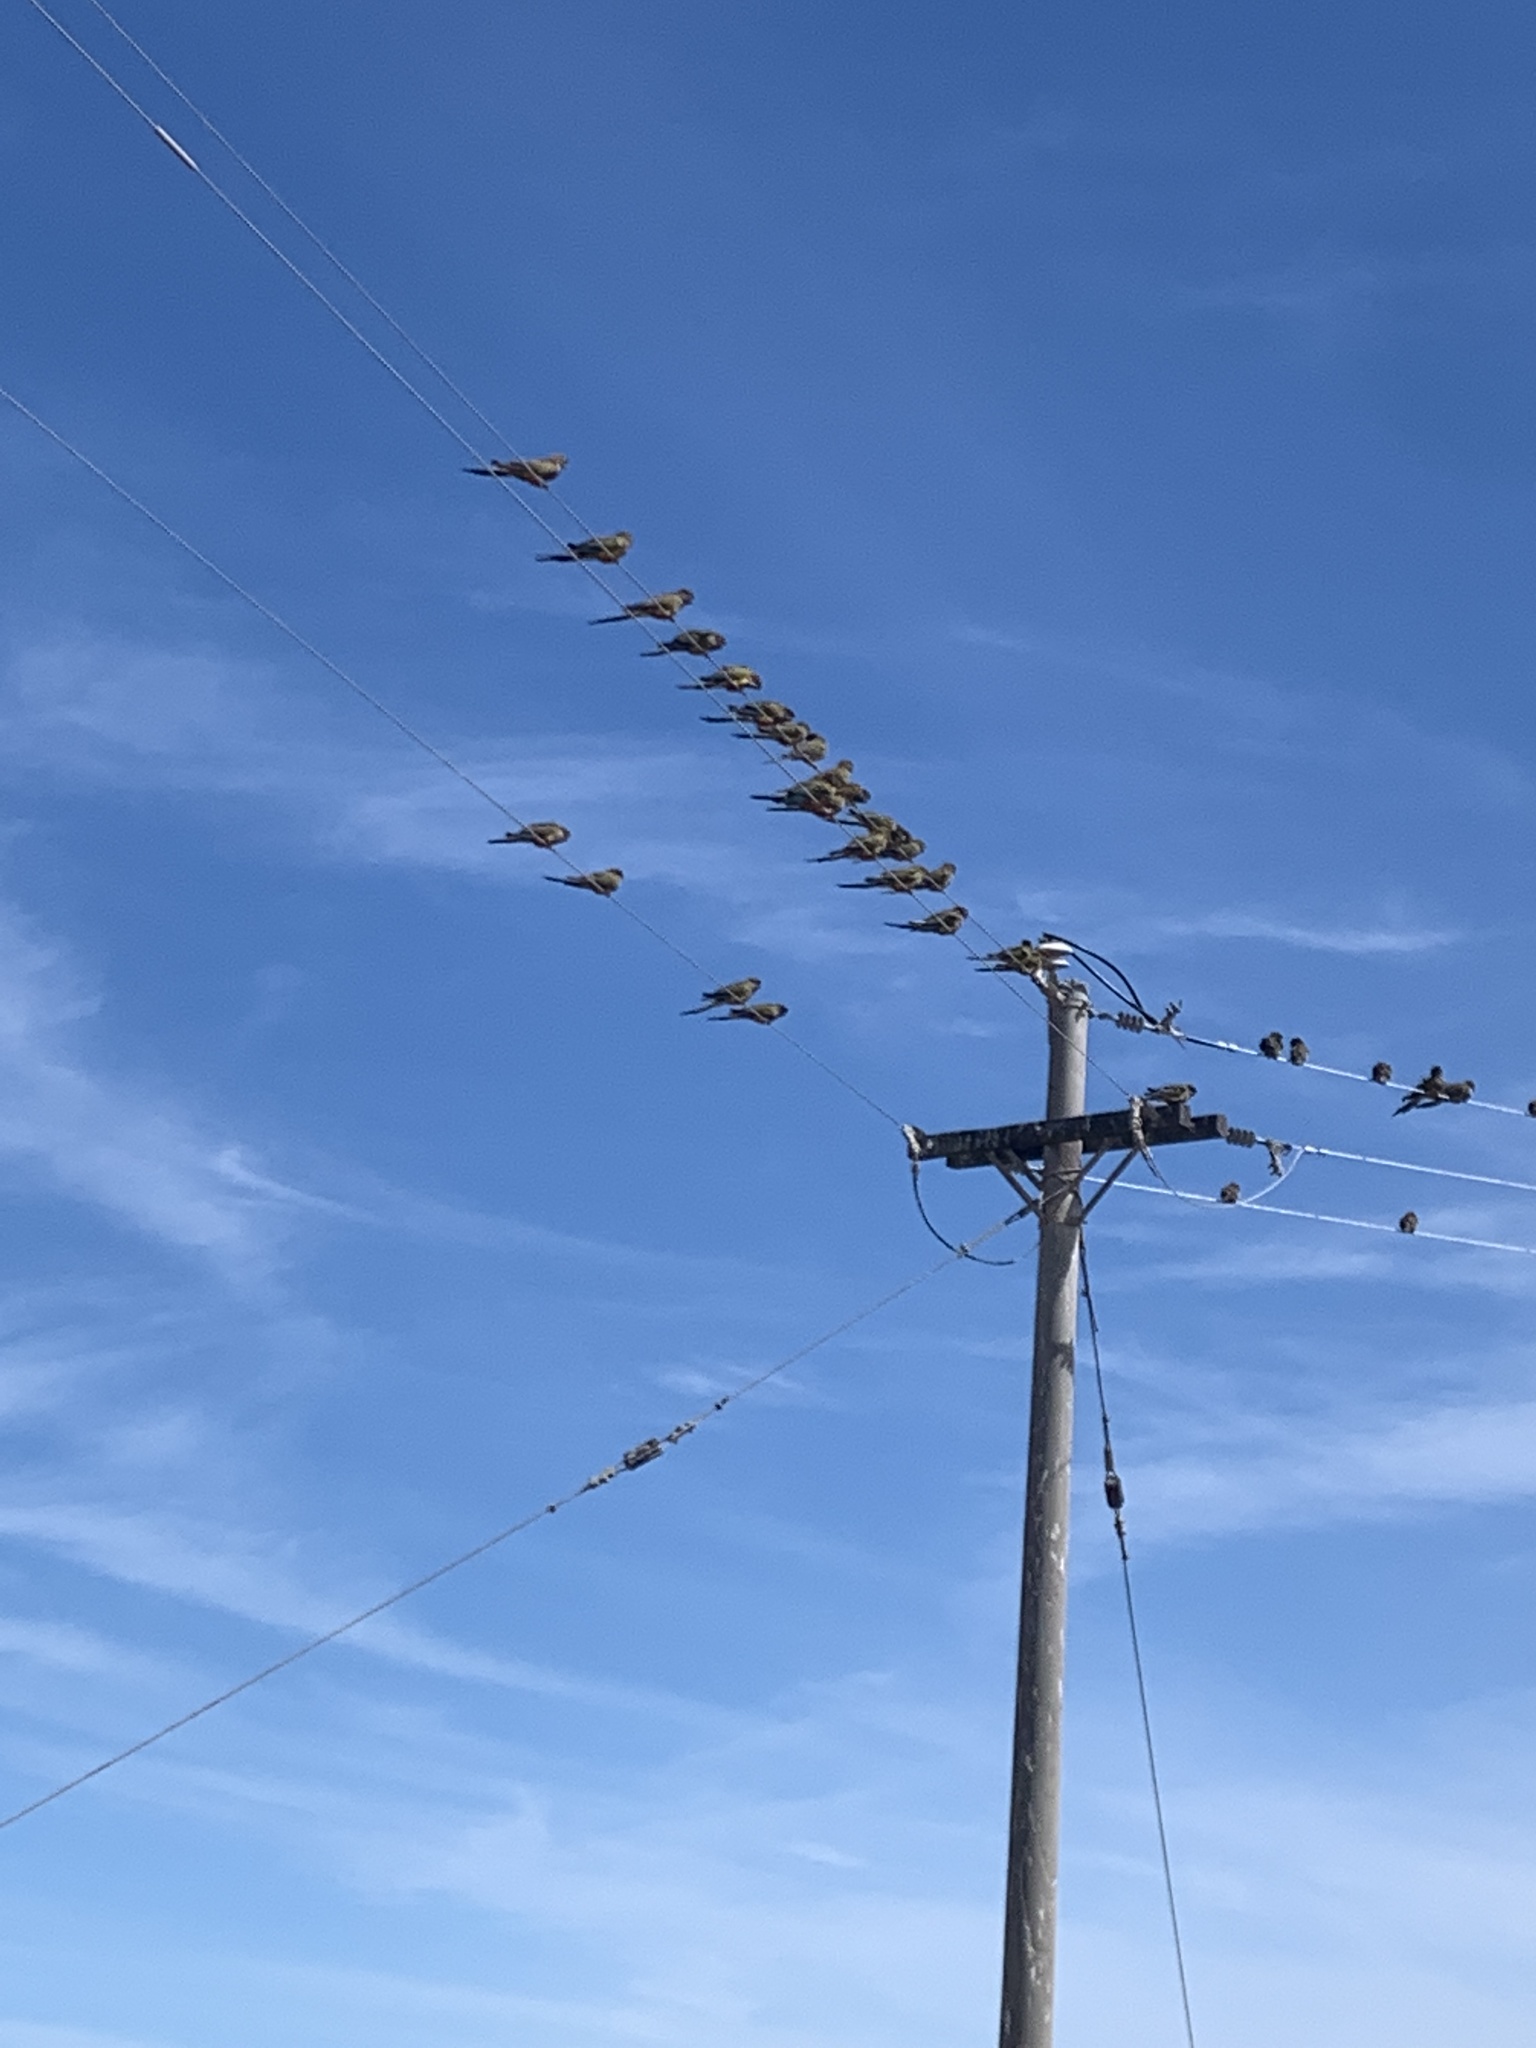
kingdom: Animalia
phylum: Chordata
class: Aves
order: Psittaciformes
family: Psittacidae
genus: Cyanoliseus
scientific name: Cyanoliseus patagonus
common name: Burrowing parrot
